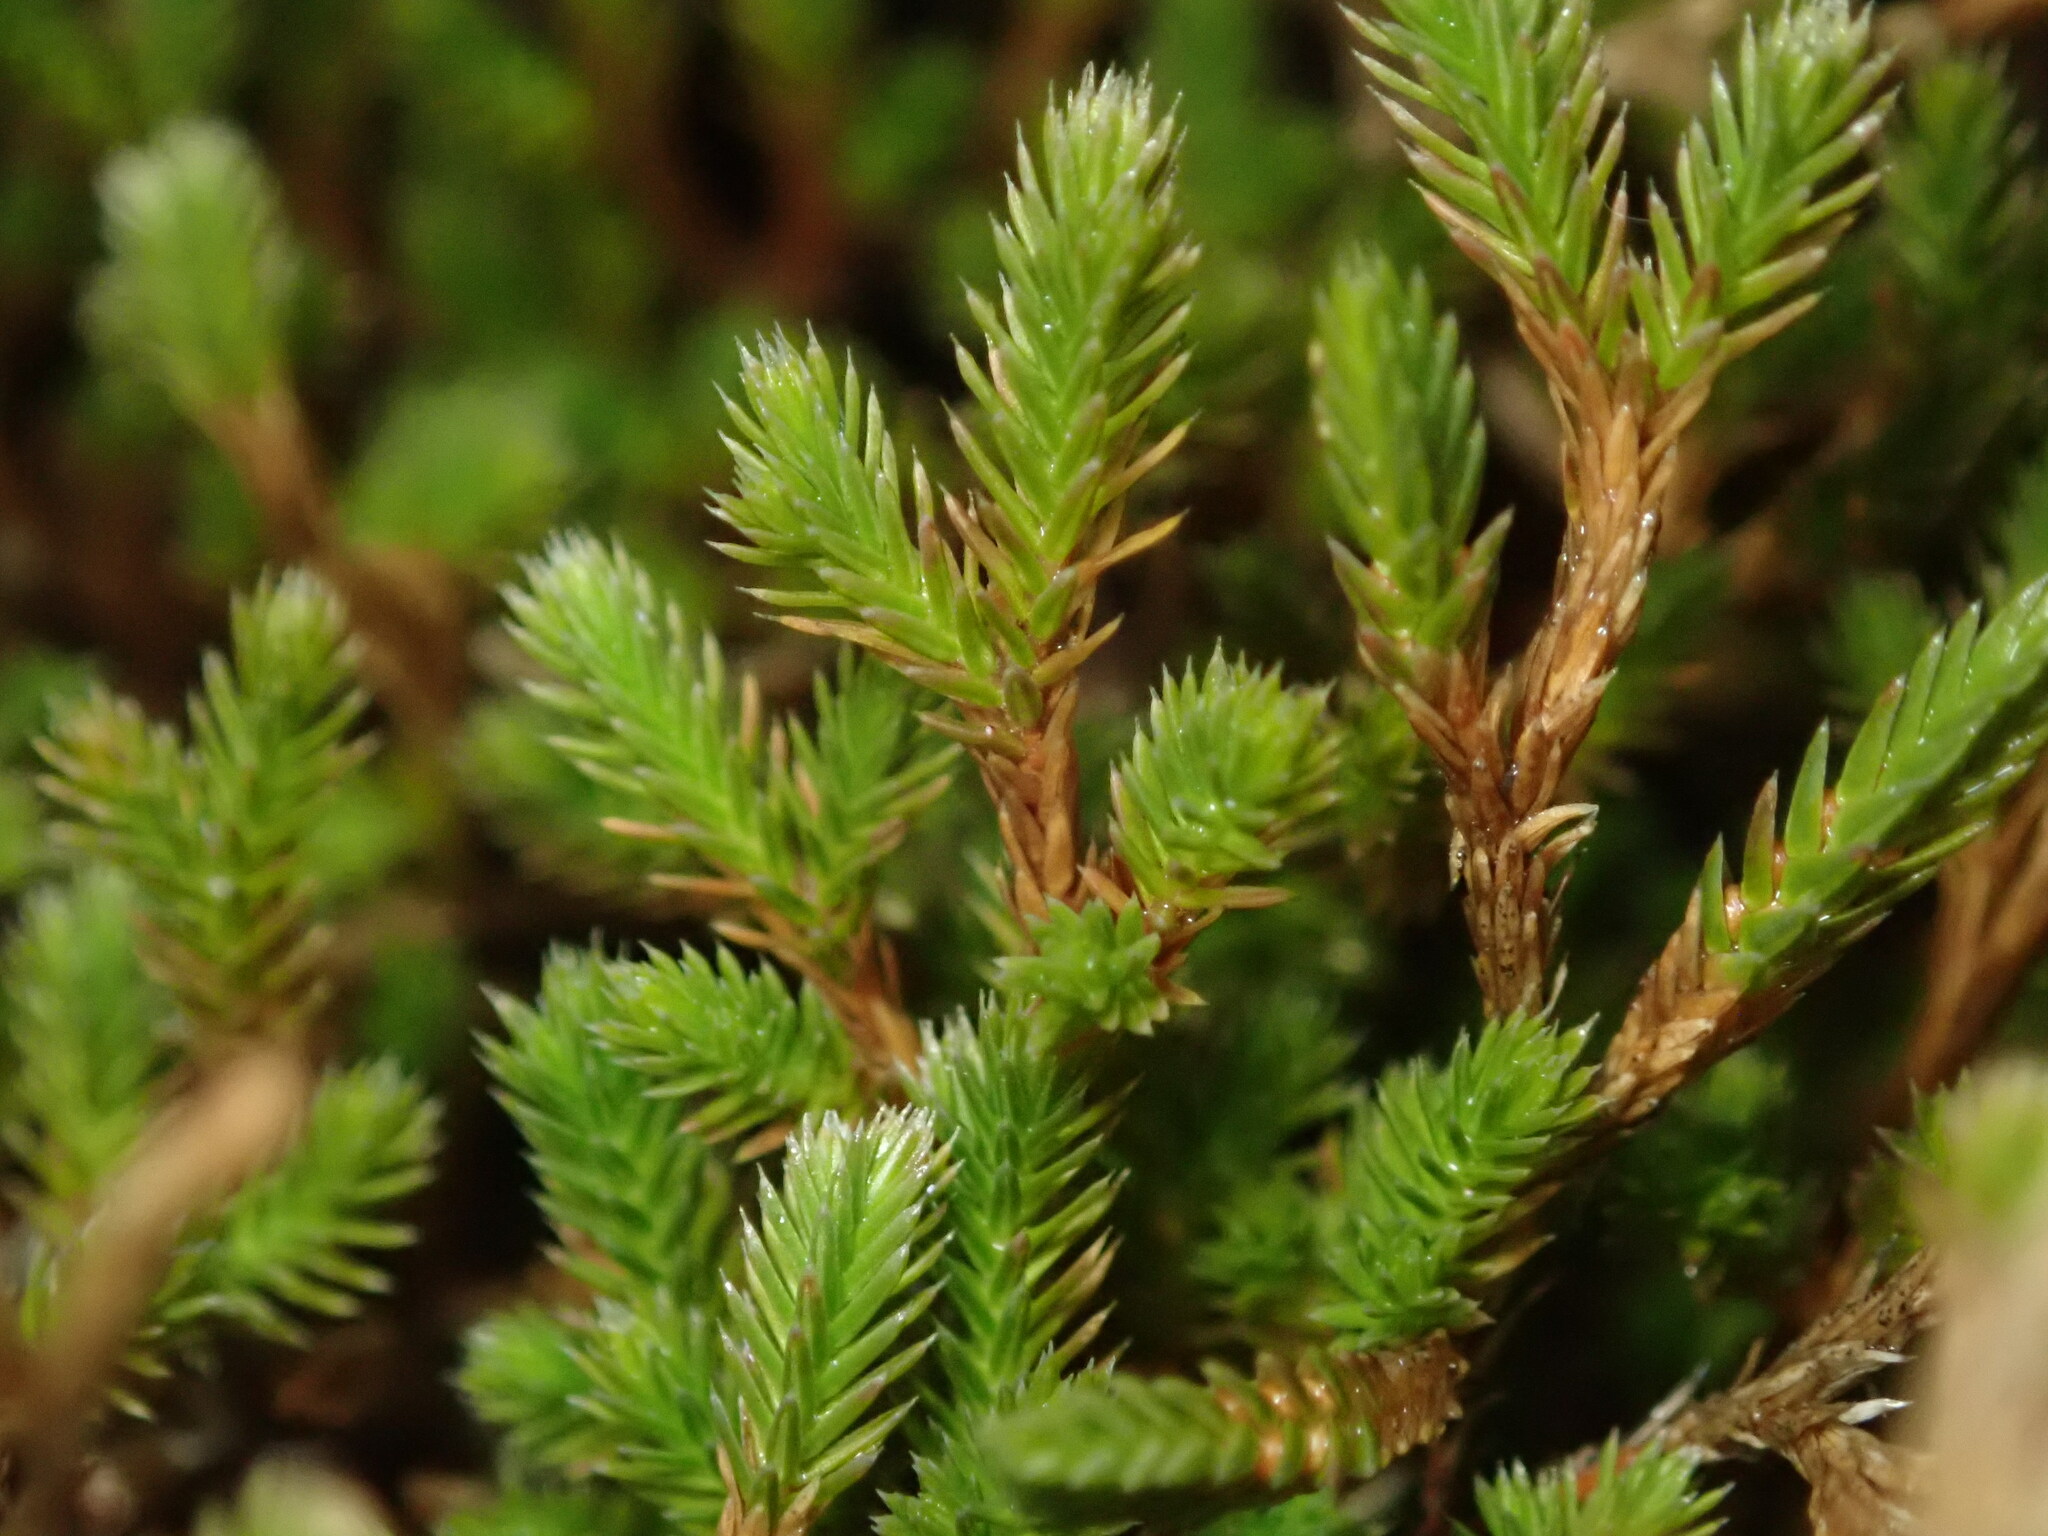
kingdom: Plantae
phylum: Tracheophyta
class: Lycopodiopsida
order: Selaginellales
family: Selaginellaceae
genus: Selaginella
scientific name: Selaginella bigelovii
